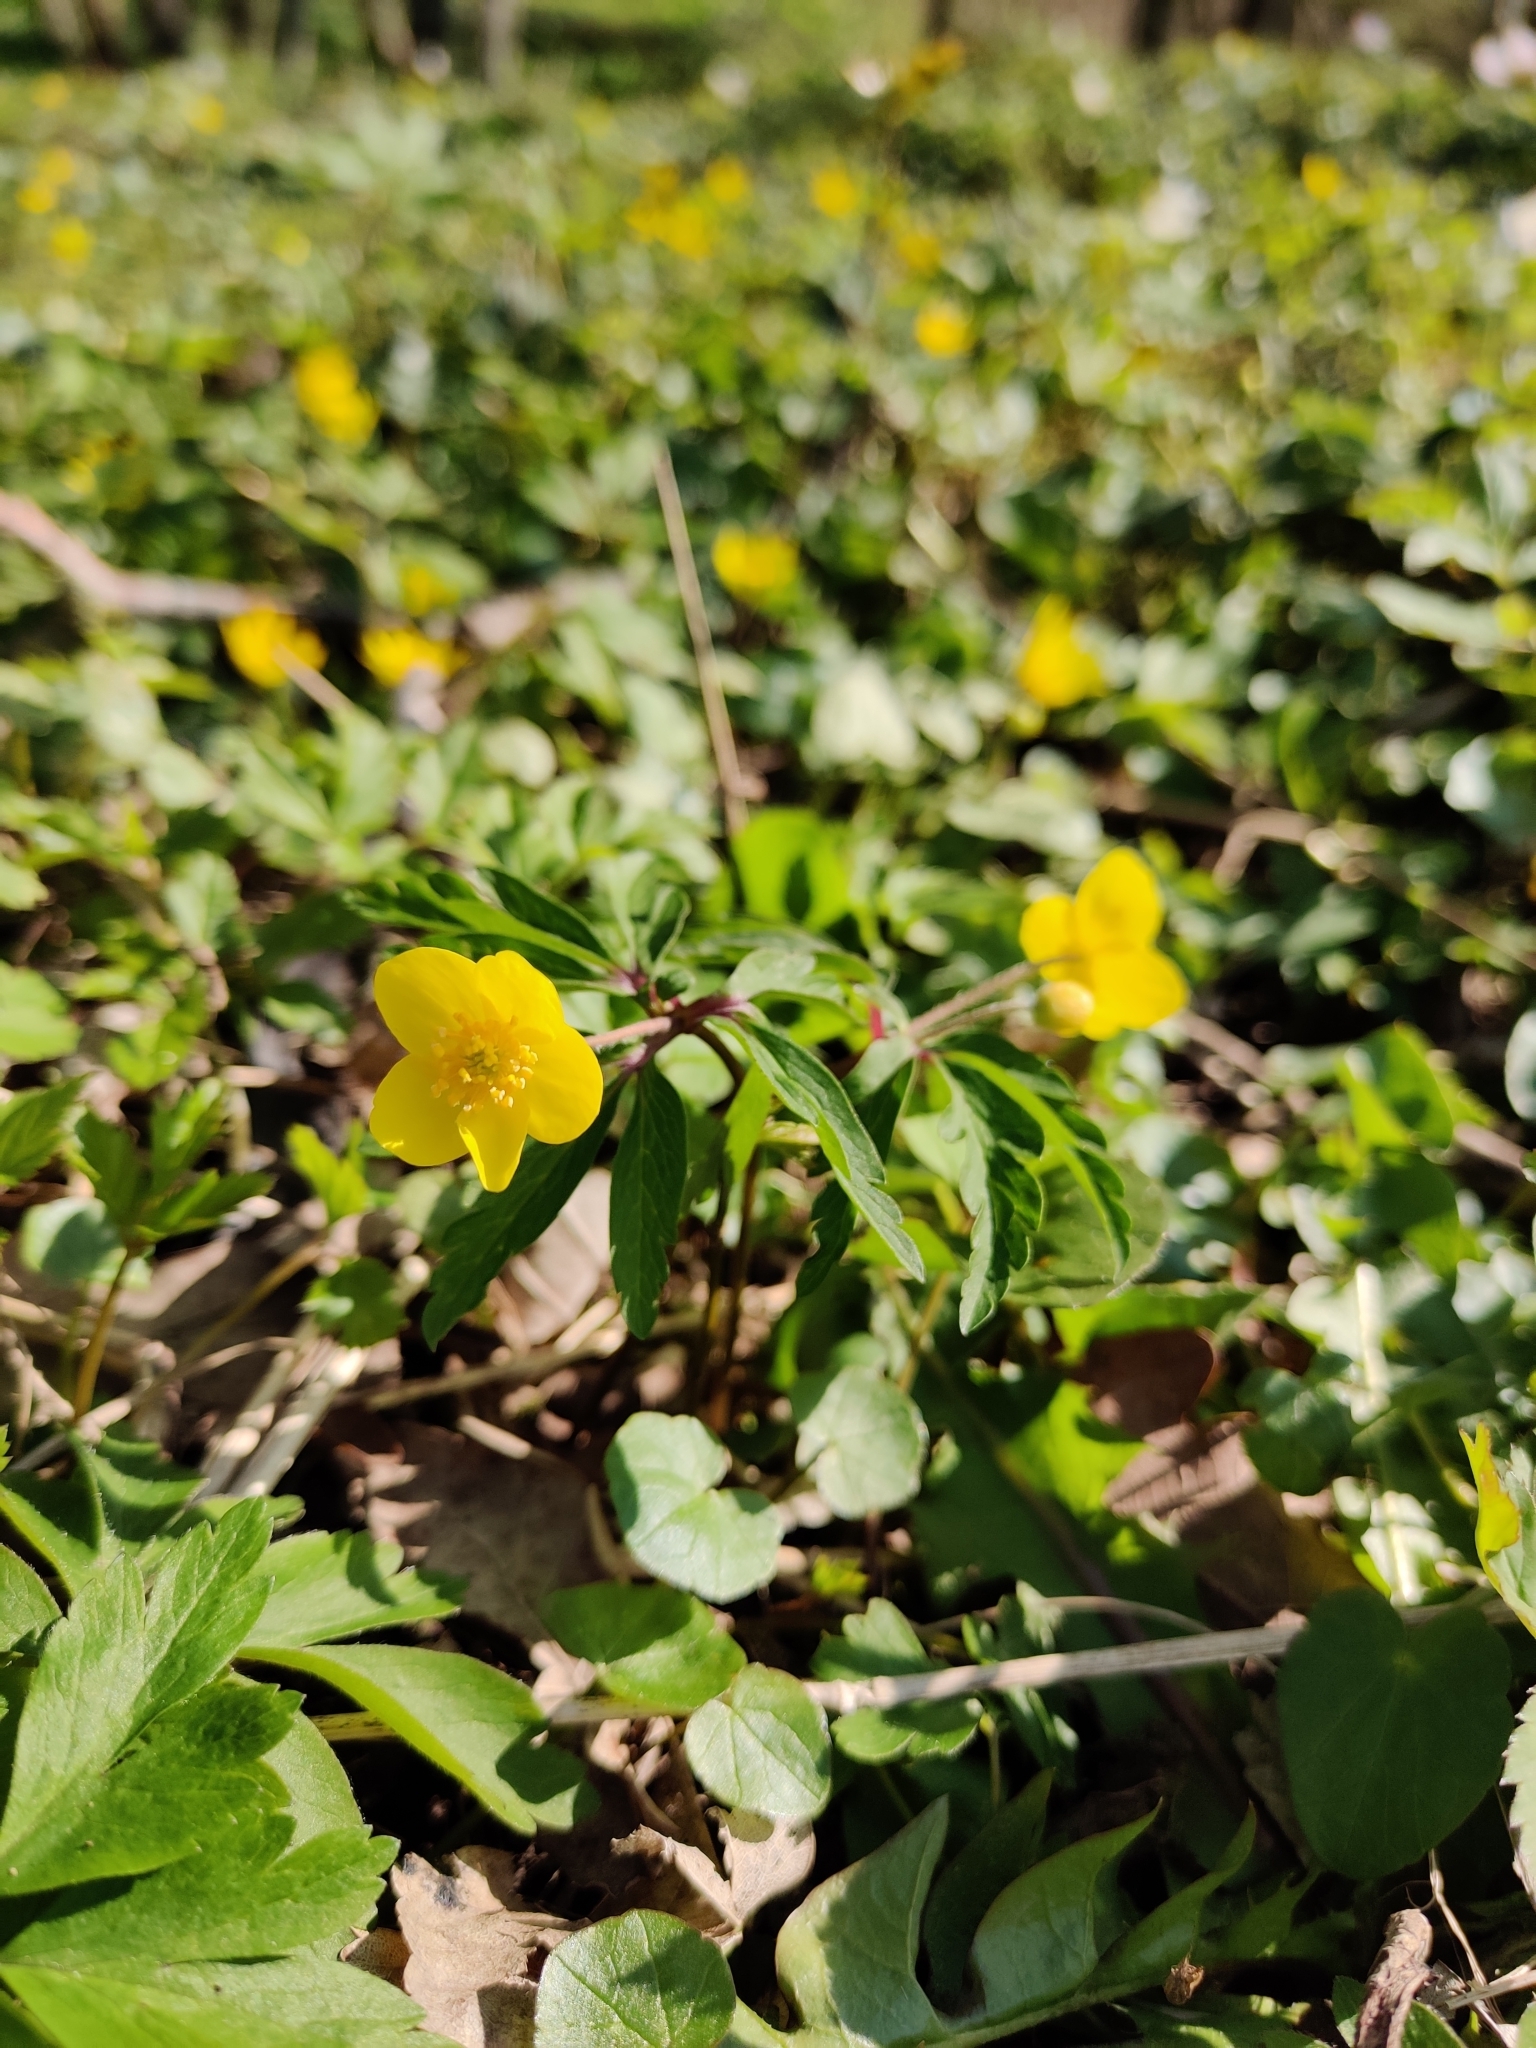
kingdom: Plantae
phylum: Tracheophyta
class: Magnoliopsida
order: Ranunculales
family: Ranunculaceae
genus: Anemone
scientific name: Anemone ranunculoides
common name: Yellow anemone
